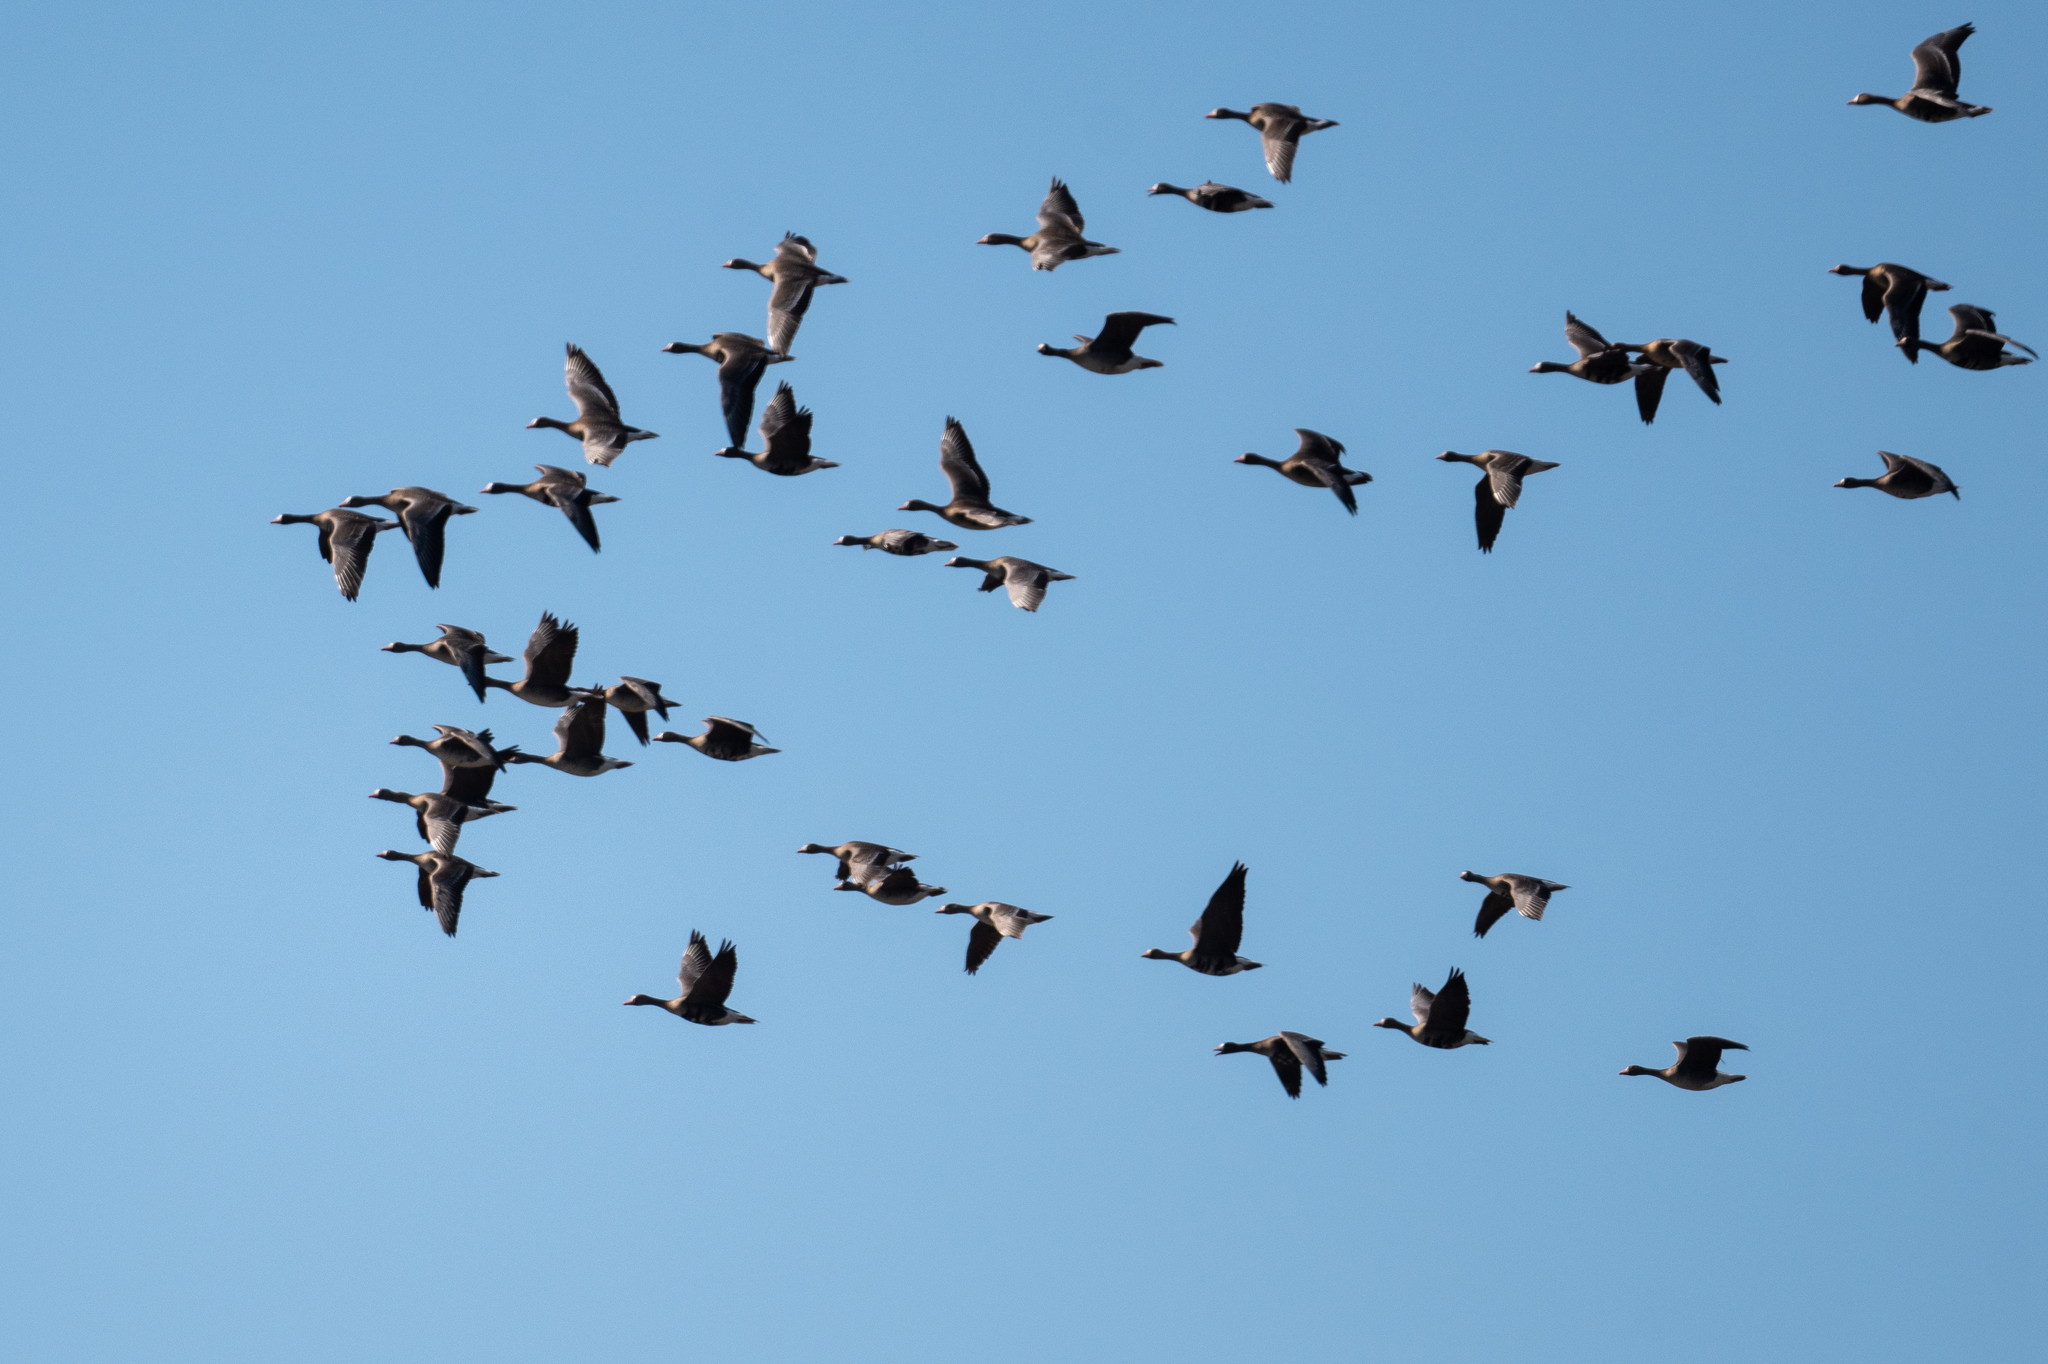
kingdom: Animalia
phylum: Chordata
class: Aves
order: Anseriformes
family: Anatidae
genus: Anser
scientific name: Anser albifrons
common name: Greater white-fronted goose
